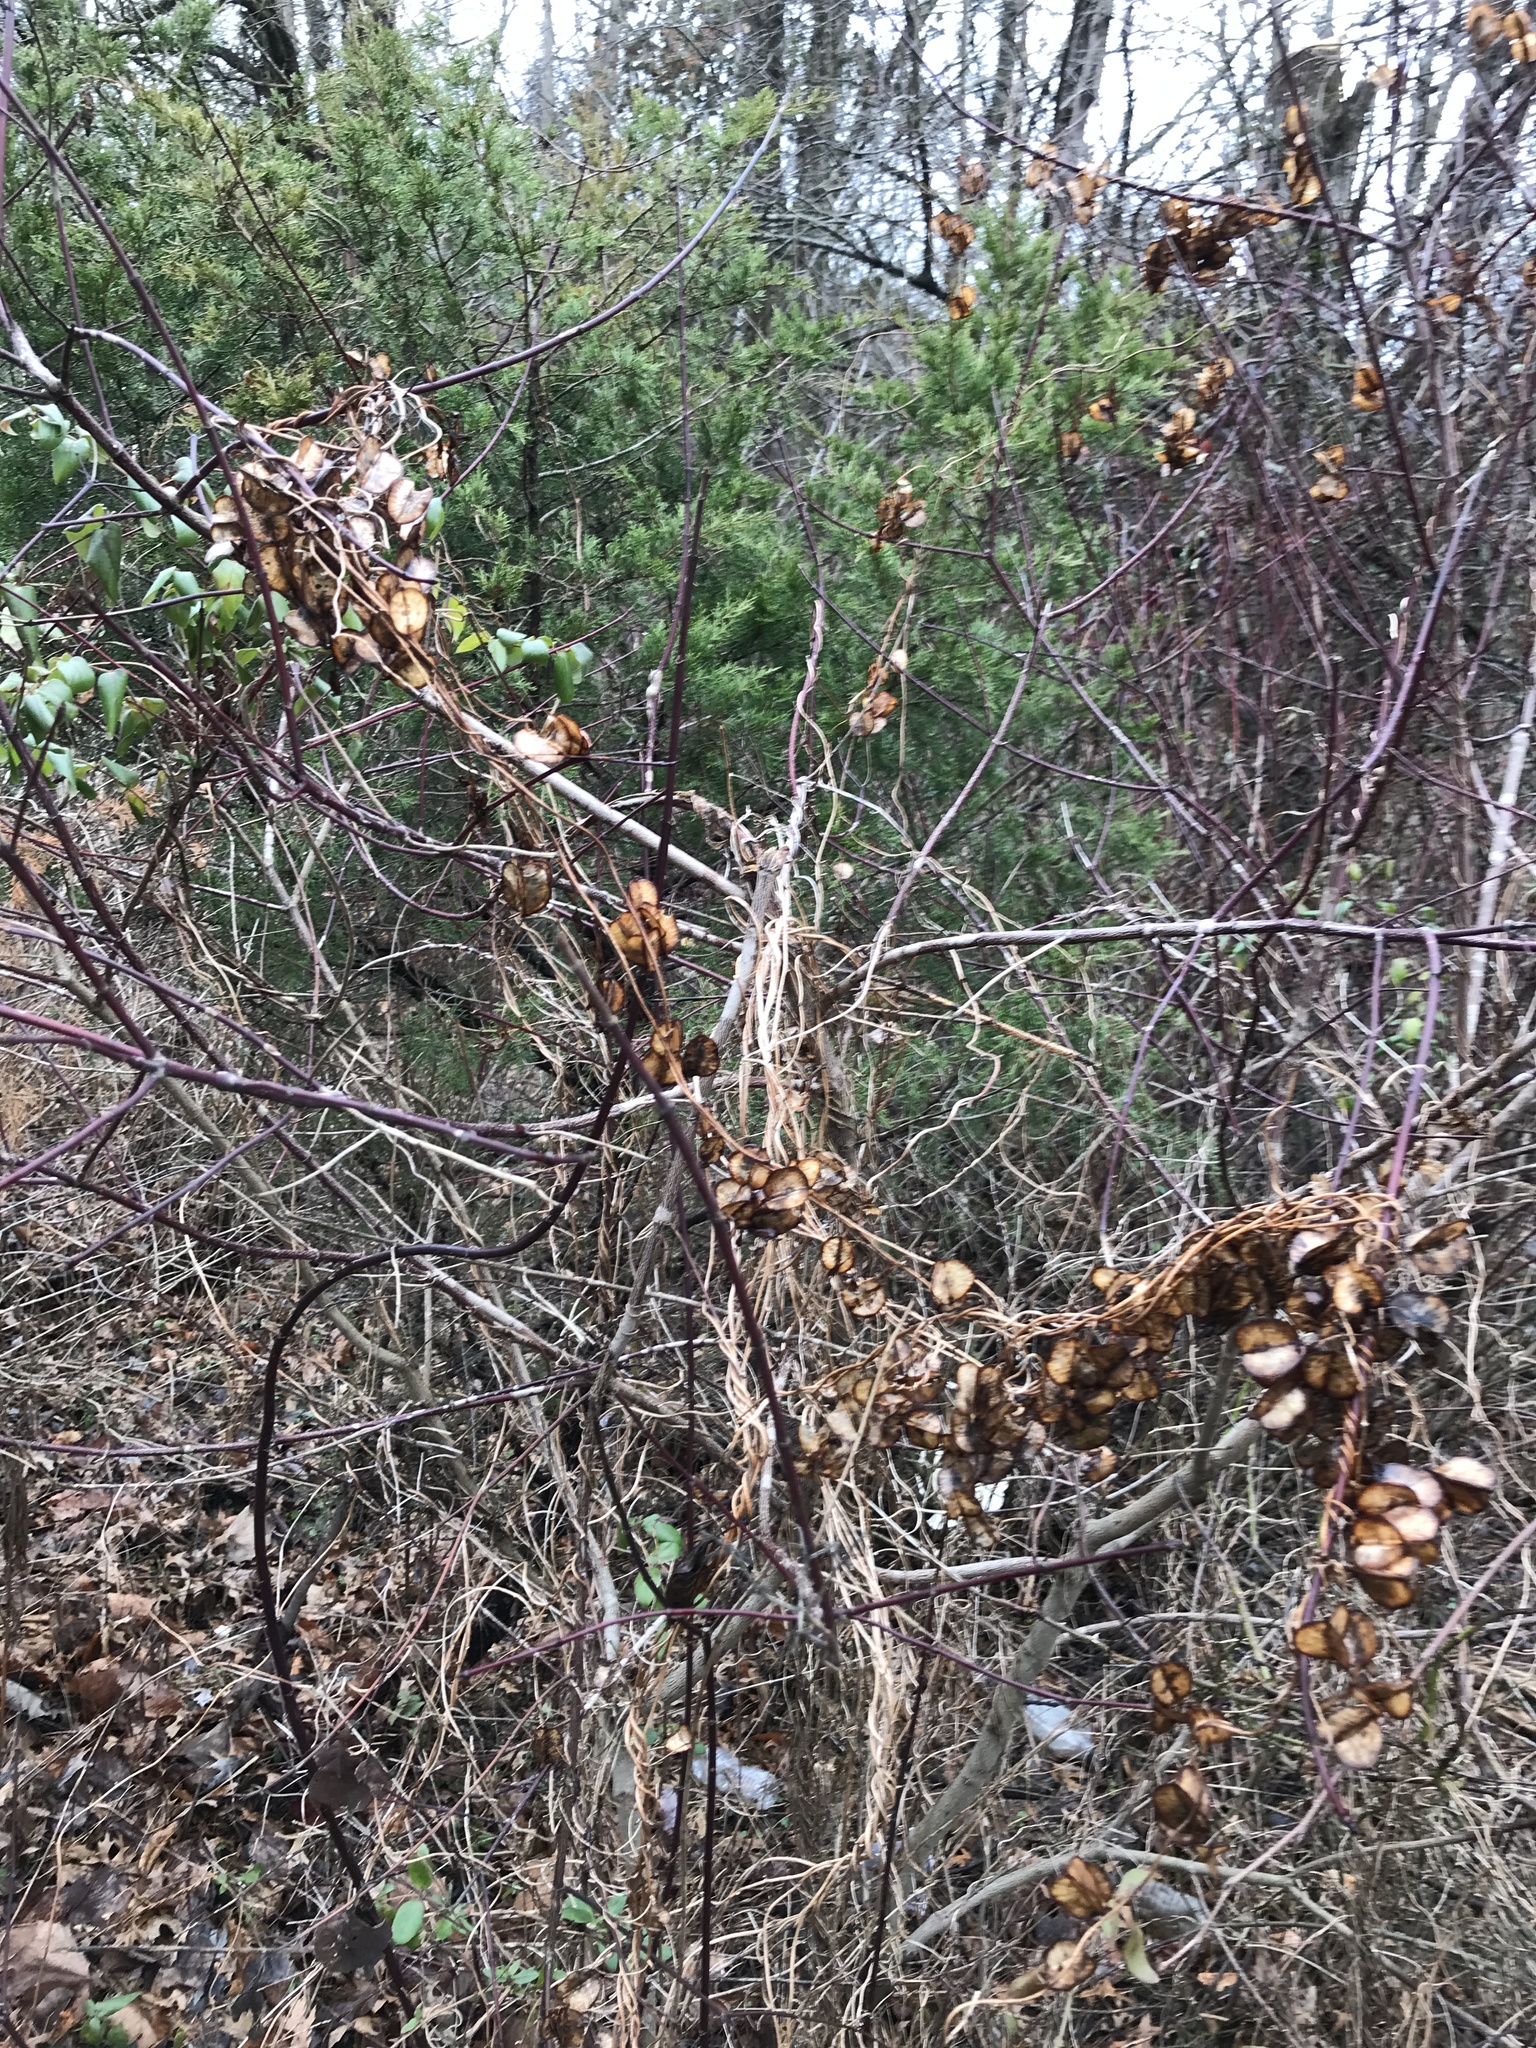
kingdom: Plantae
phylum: Tracheophyta
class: Liliopsida
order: Dioscoreales
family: Dioscoreaceae
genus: Dioscorea
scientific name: Dioscorea villosa
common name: Wild yam
